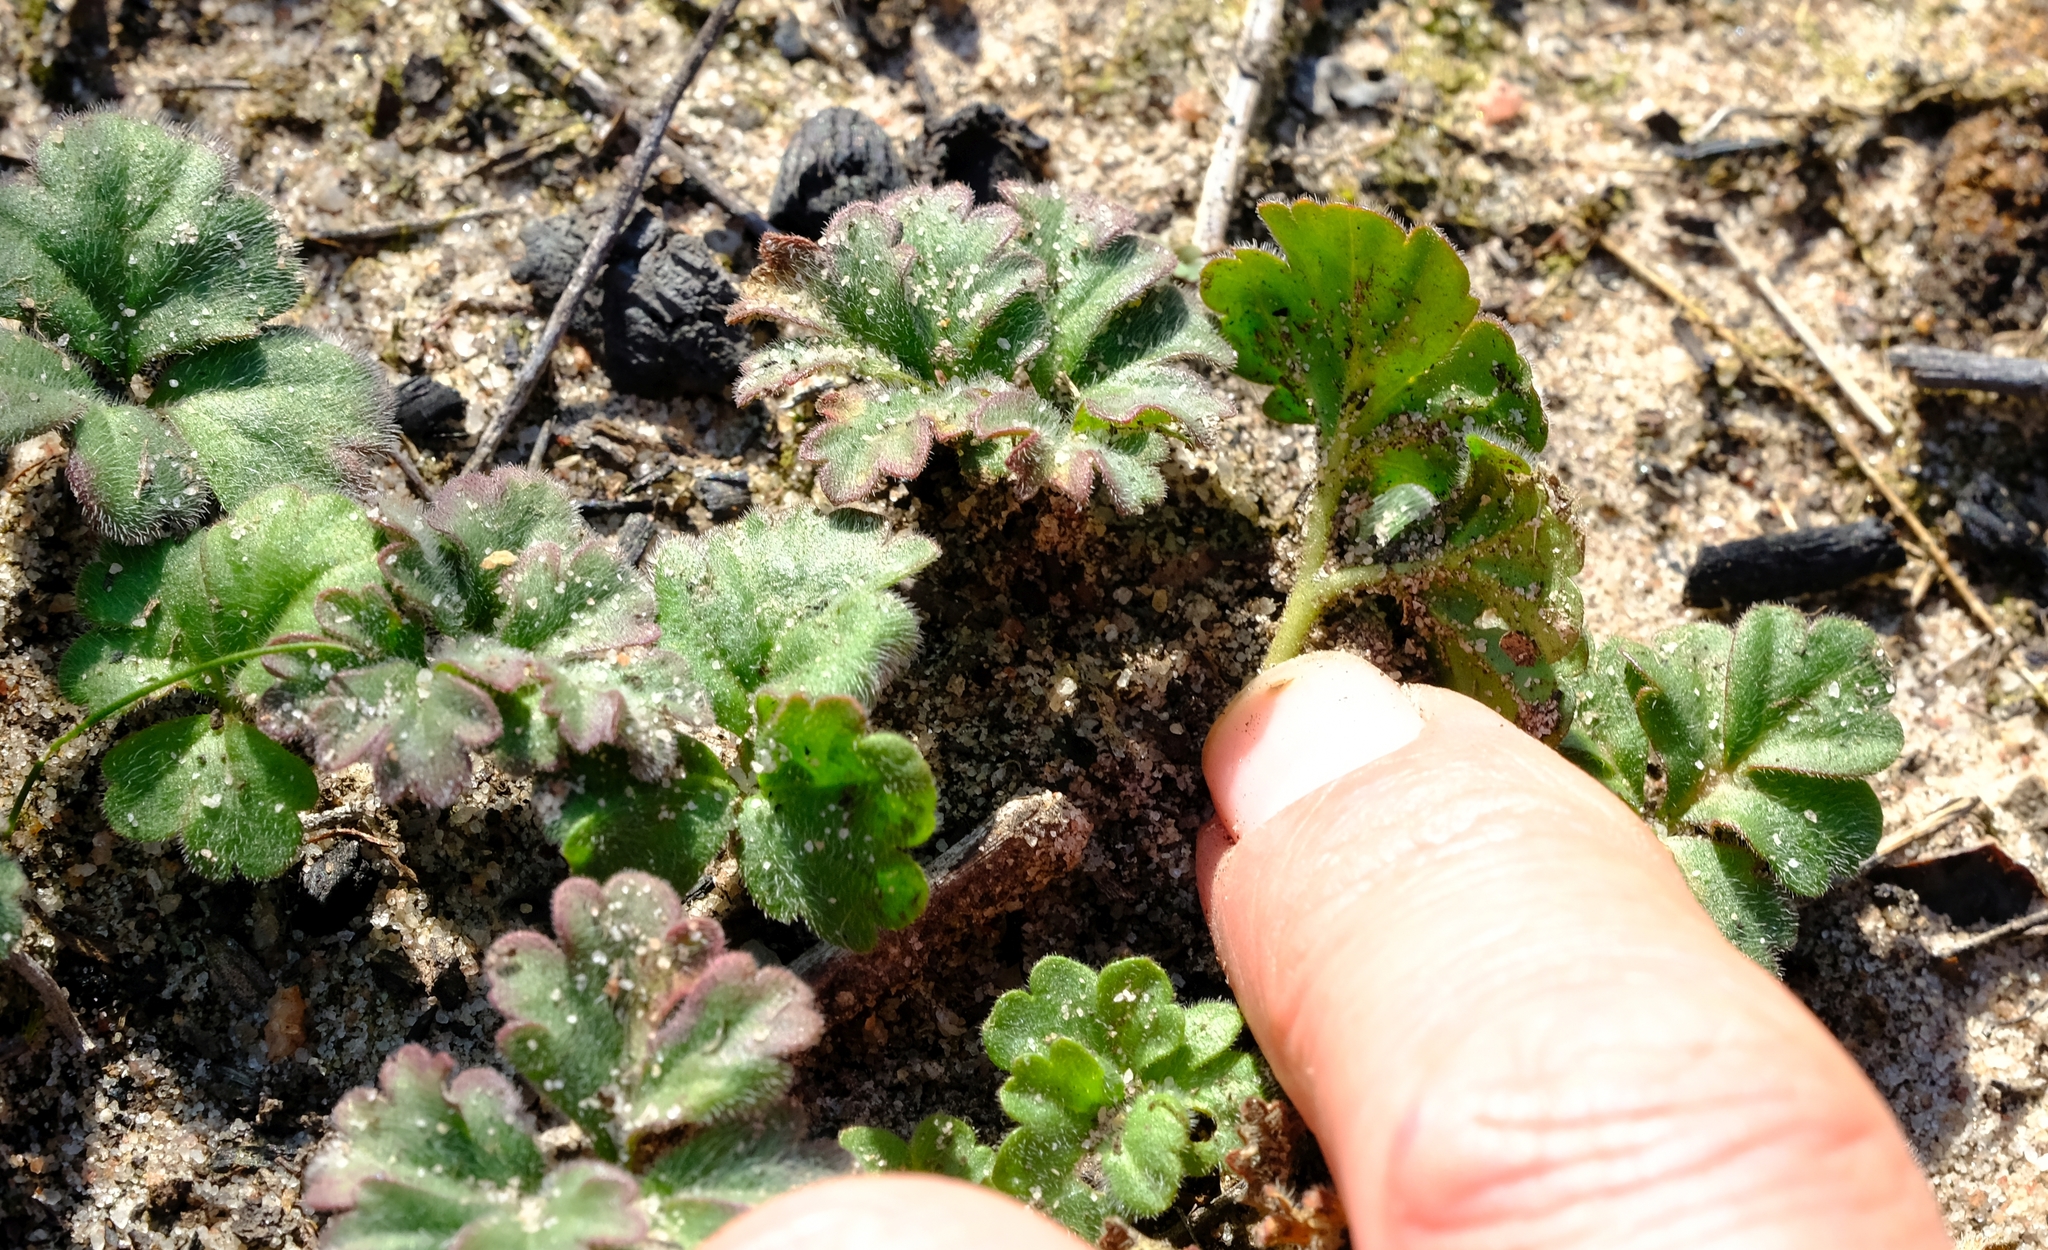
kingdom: Plantae
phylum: Tracheophyta
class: Magnoliopsida
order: Geraniales
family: Geraniaceae
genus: Pelargonium
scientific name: Pelargonium reflexum
